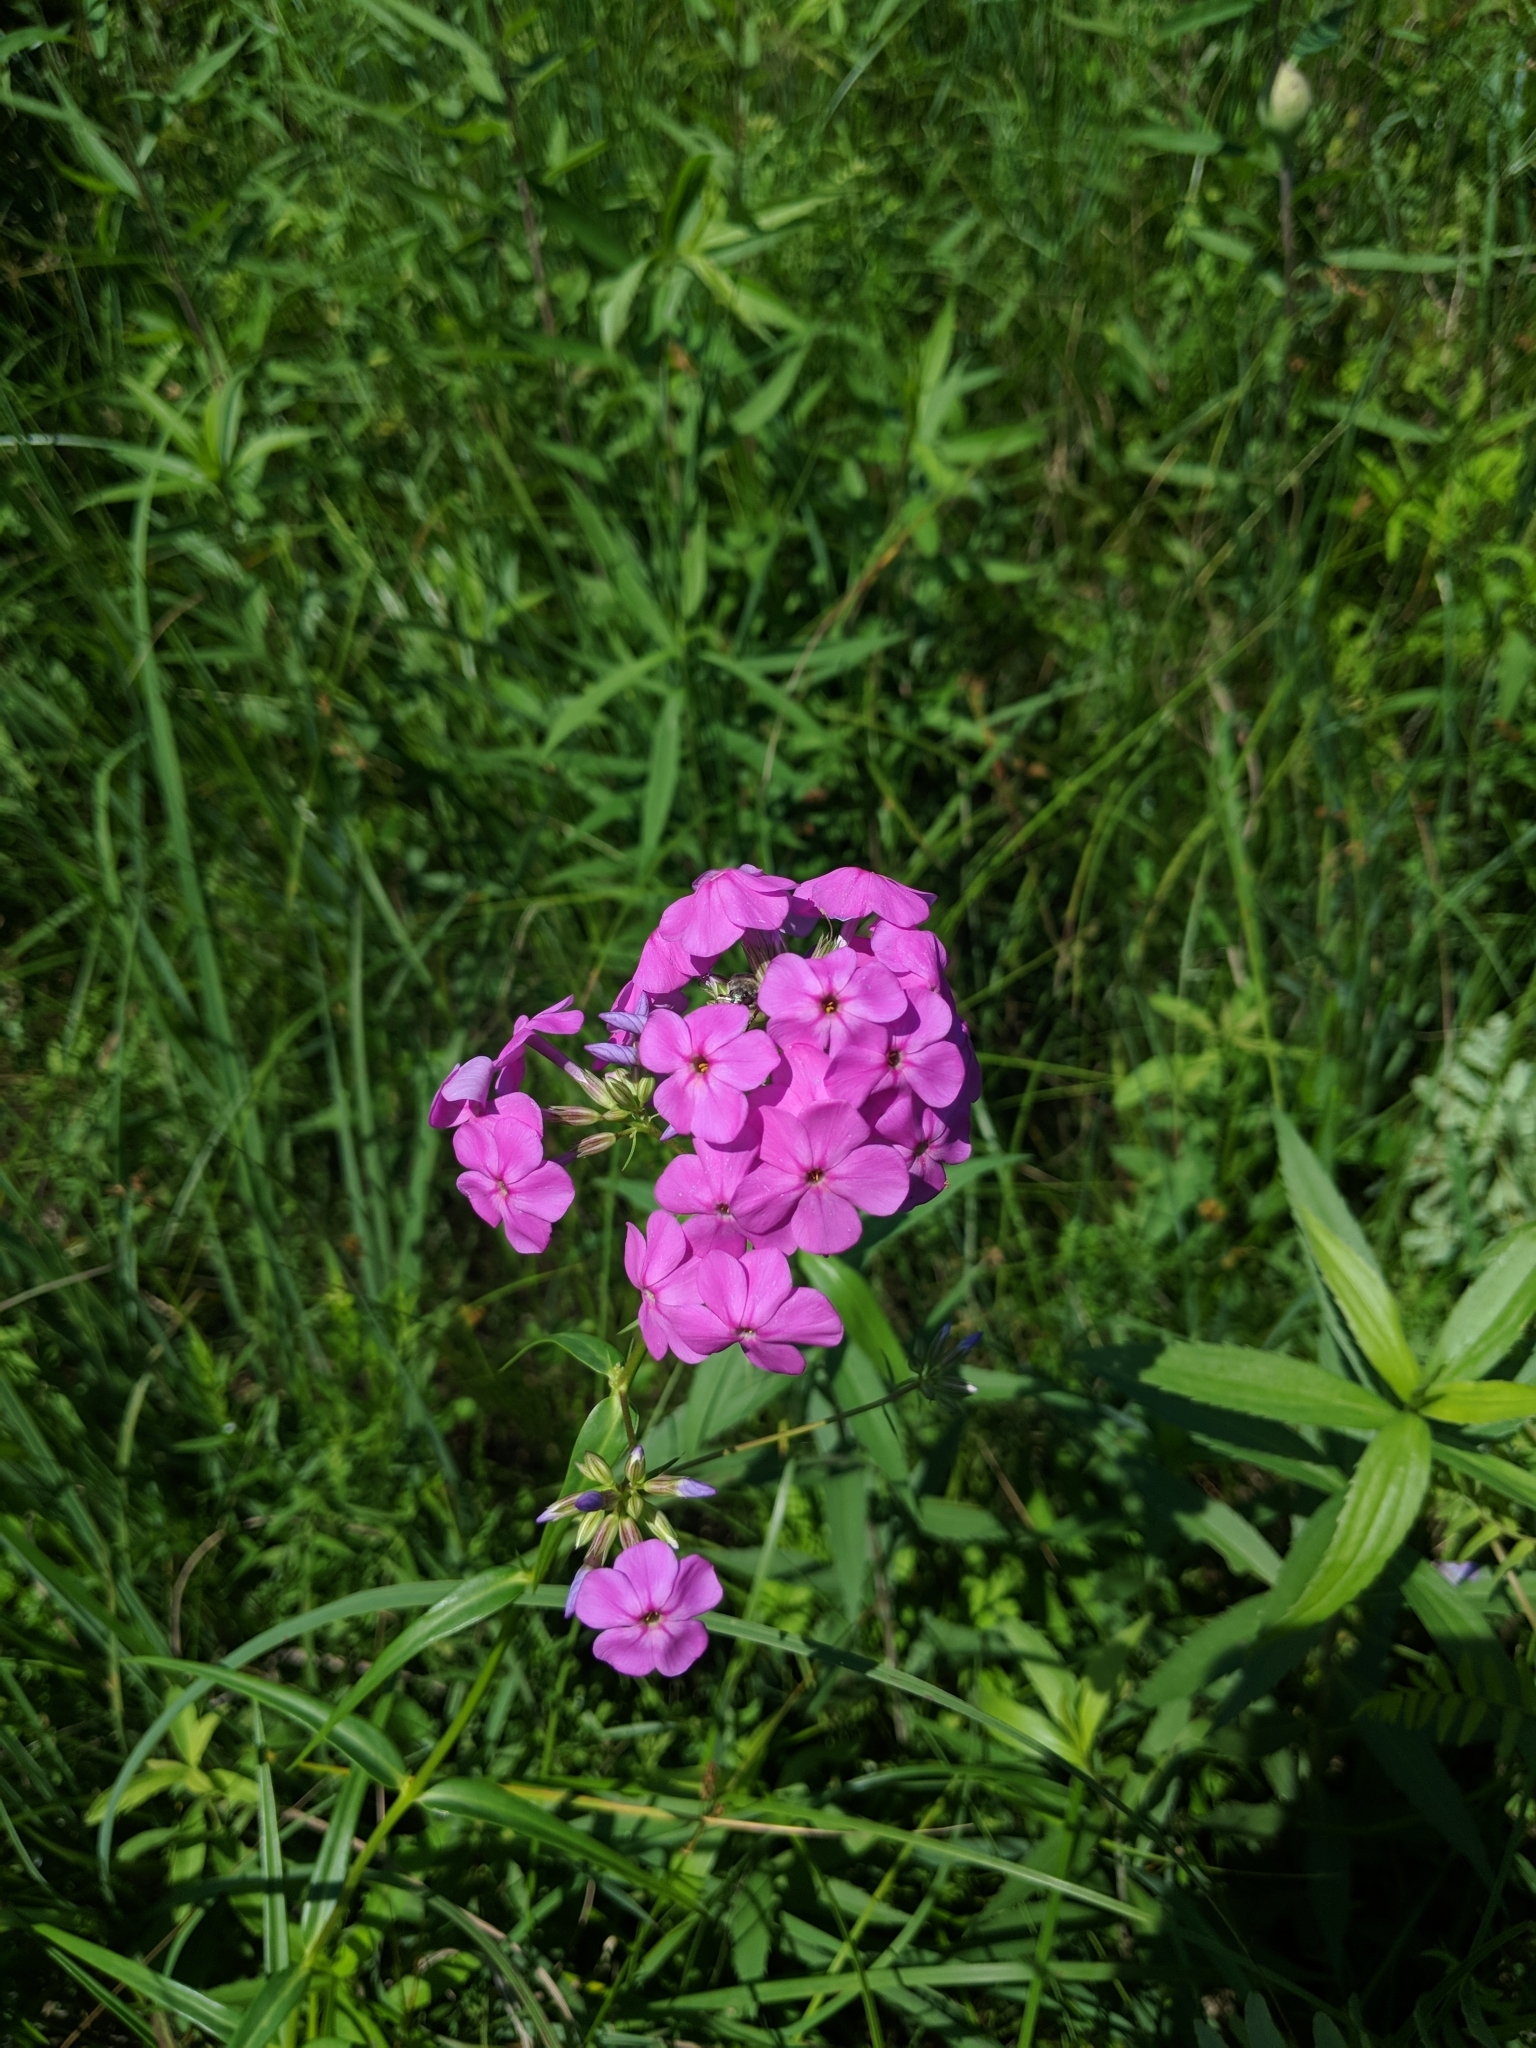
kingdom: Plantae
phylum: Tracheophyta
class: Magnoliopsida
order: Ericales
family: Polemoniaceae
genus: Phlox
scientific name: Phlox glaberrima
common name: Smooth phlox
